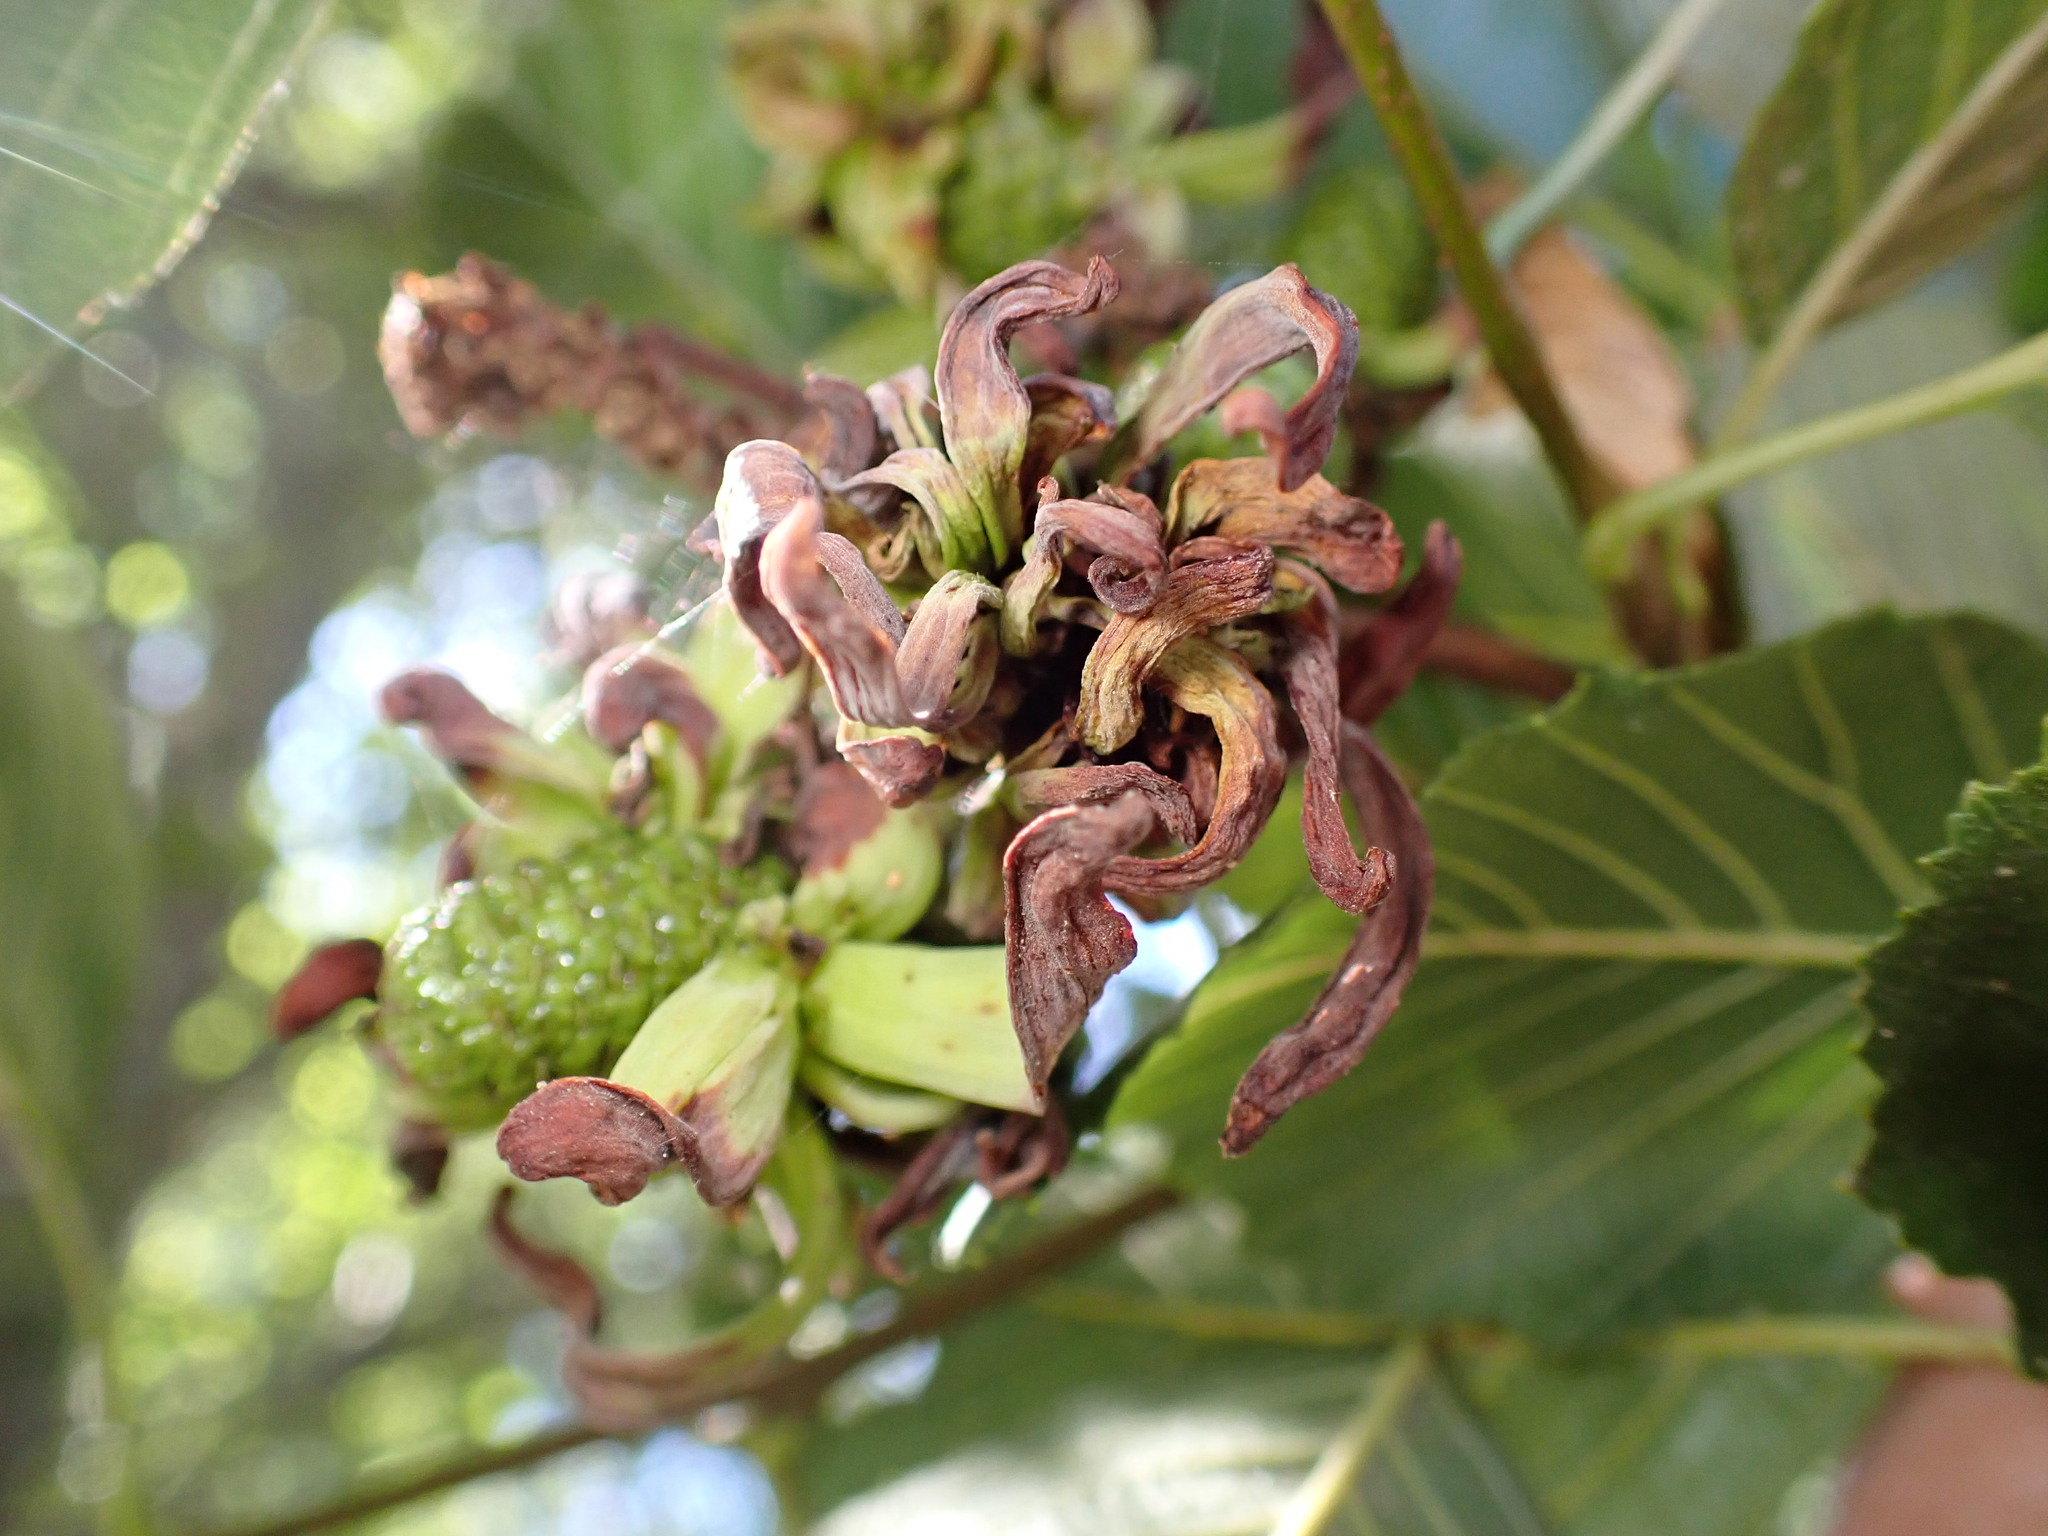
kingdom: Fungi
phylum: Ascomycota
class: Taphrinomycetes
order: Taphrinales
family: Taphrinaceae
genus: Taphrina
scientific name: Taphrina occidentalis
